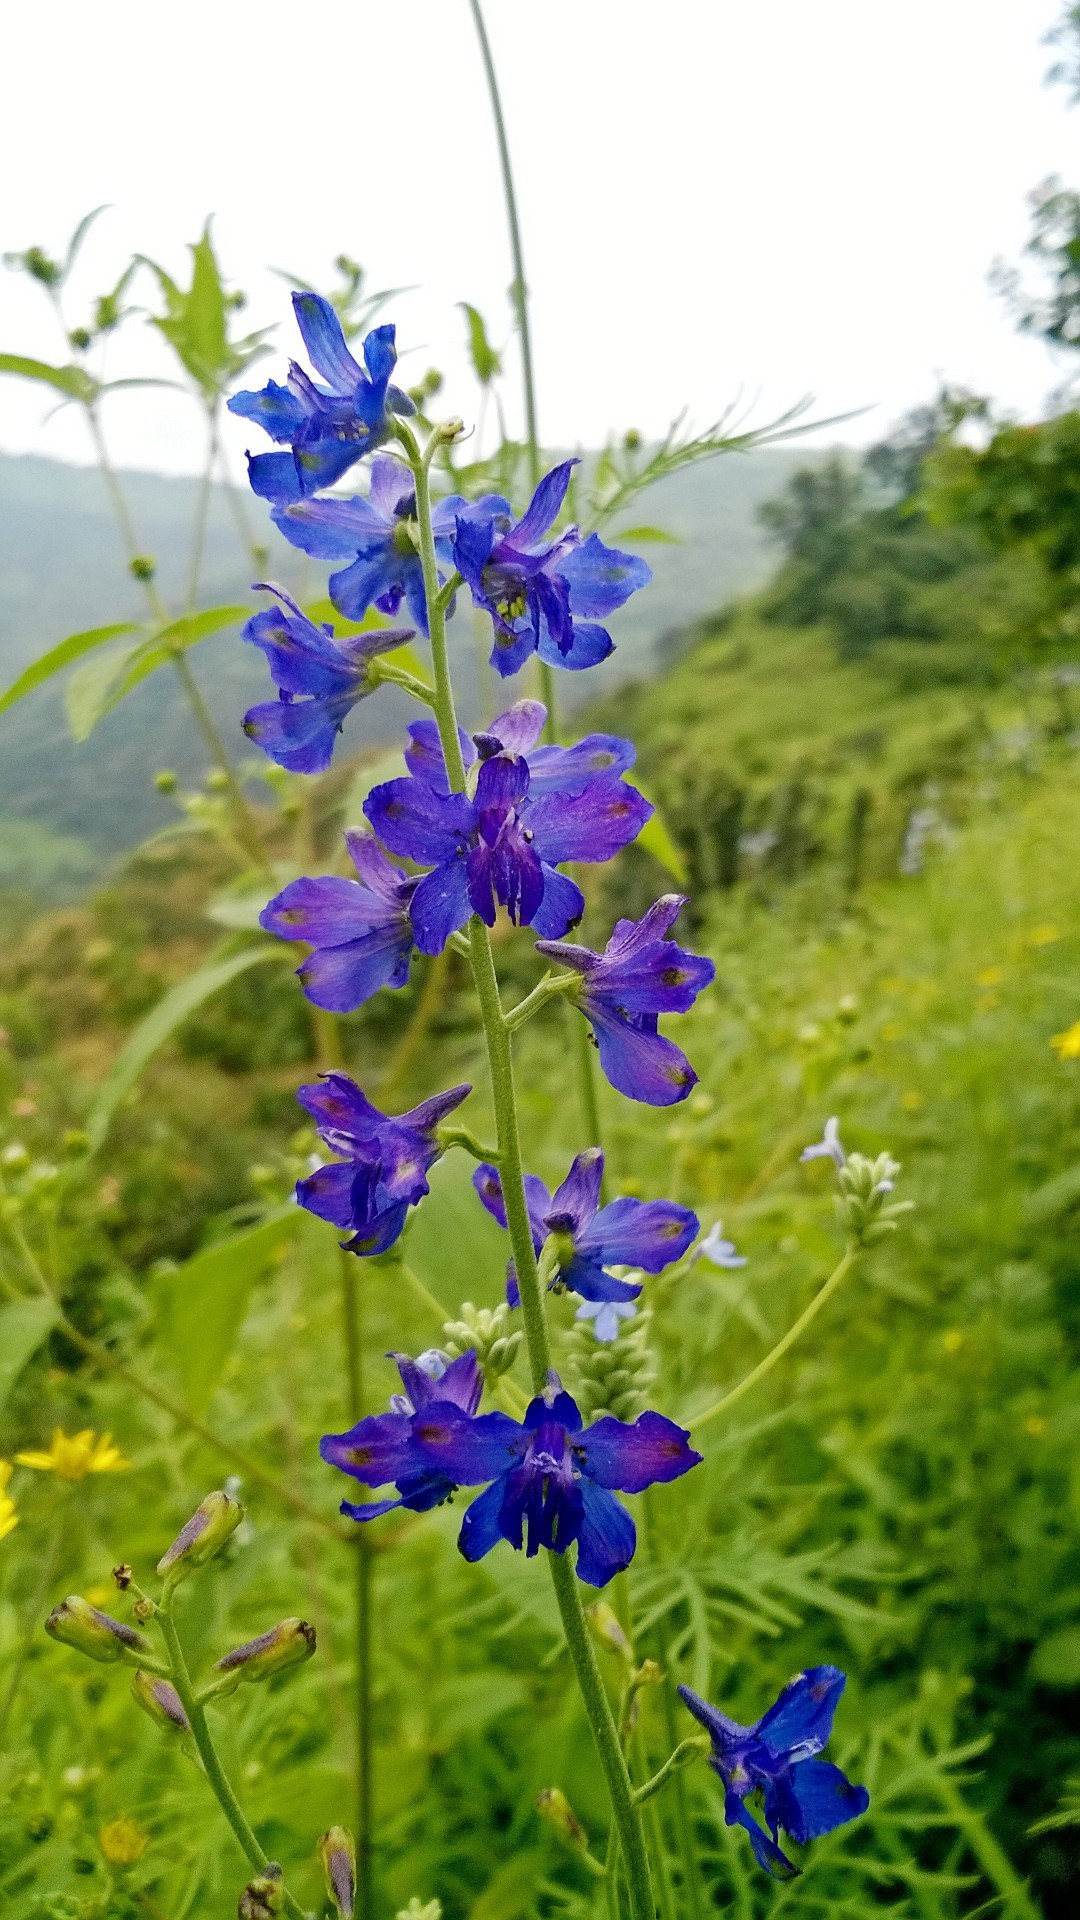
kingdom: Plantae
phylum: Tracheophyta
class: Magnoliopsida
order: Ranunculales
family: Ranunculaceae
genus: Delphinium
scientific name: Delphinium malabaricum
